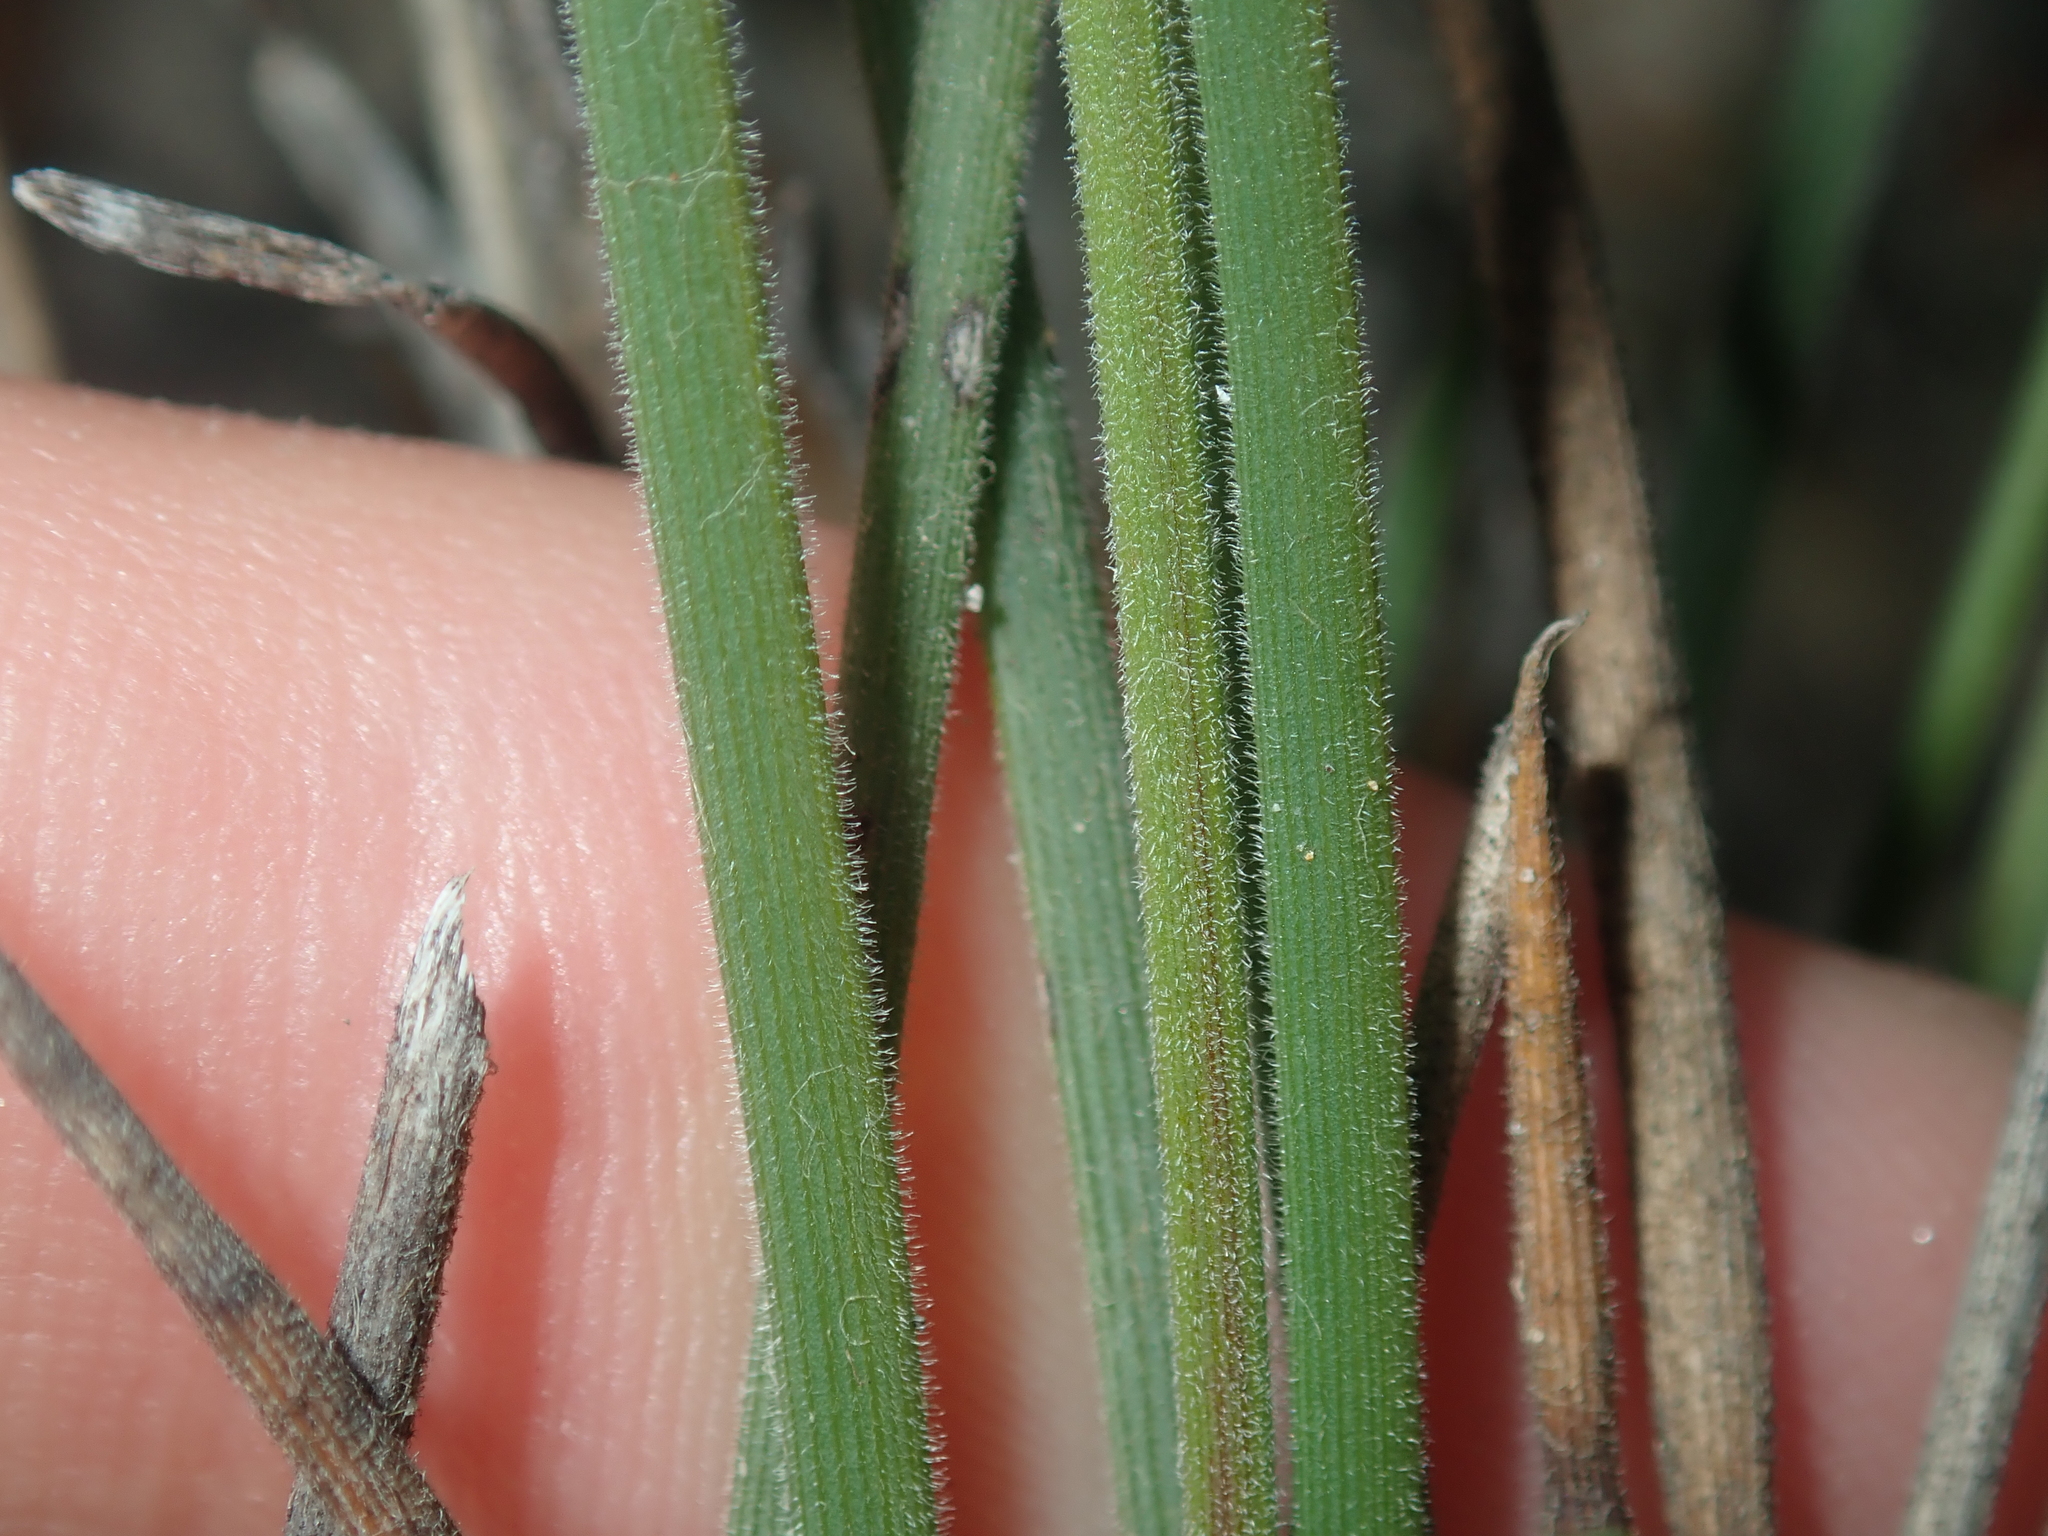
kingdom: Plantae
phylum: Tracheophyta
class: Liliopsida
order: Asparagales
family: Asphodelaceae
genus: Johnsonia
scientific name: Johnsonia pubescens
